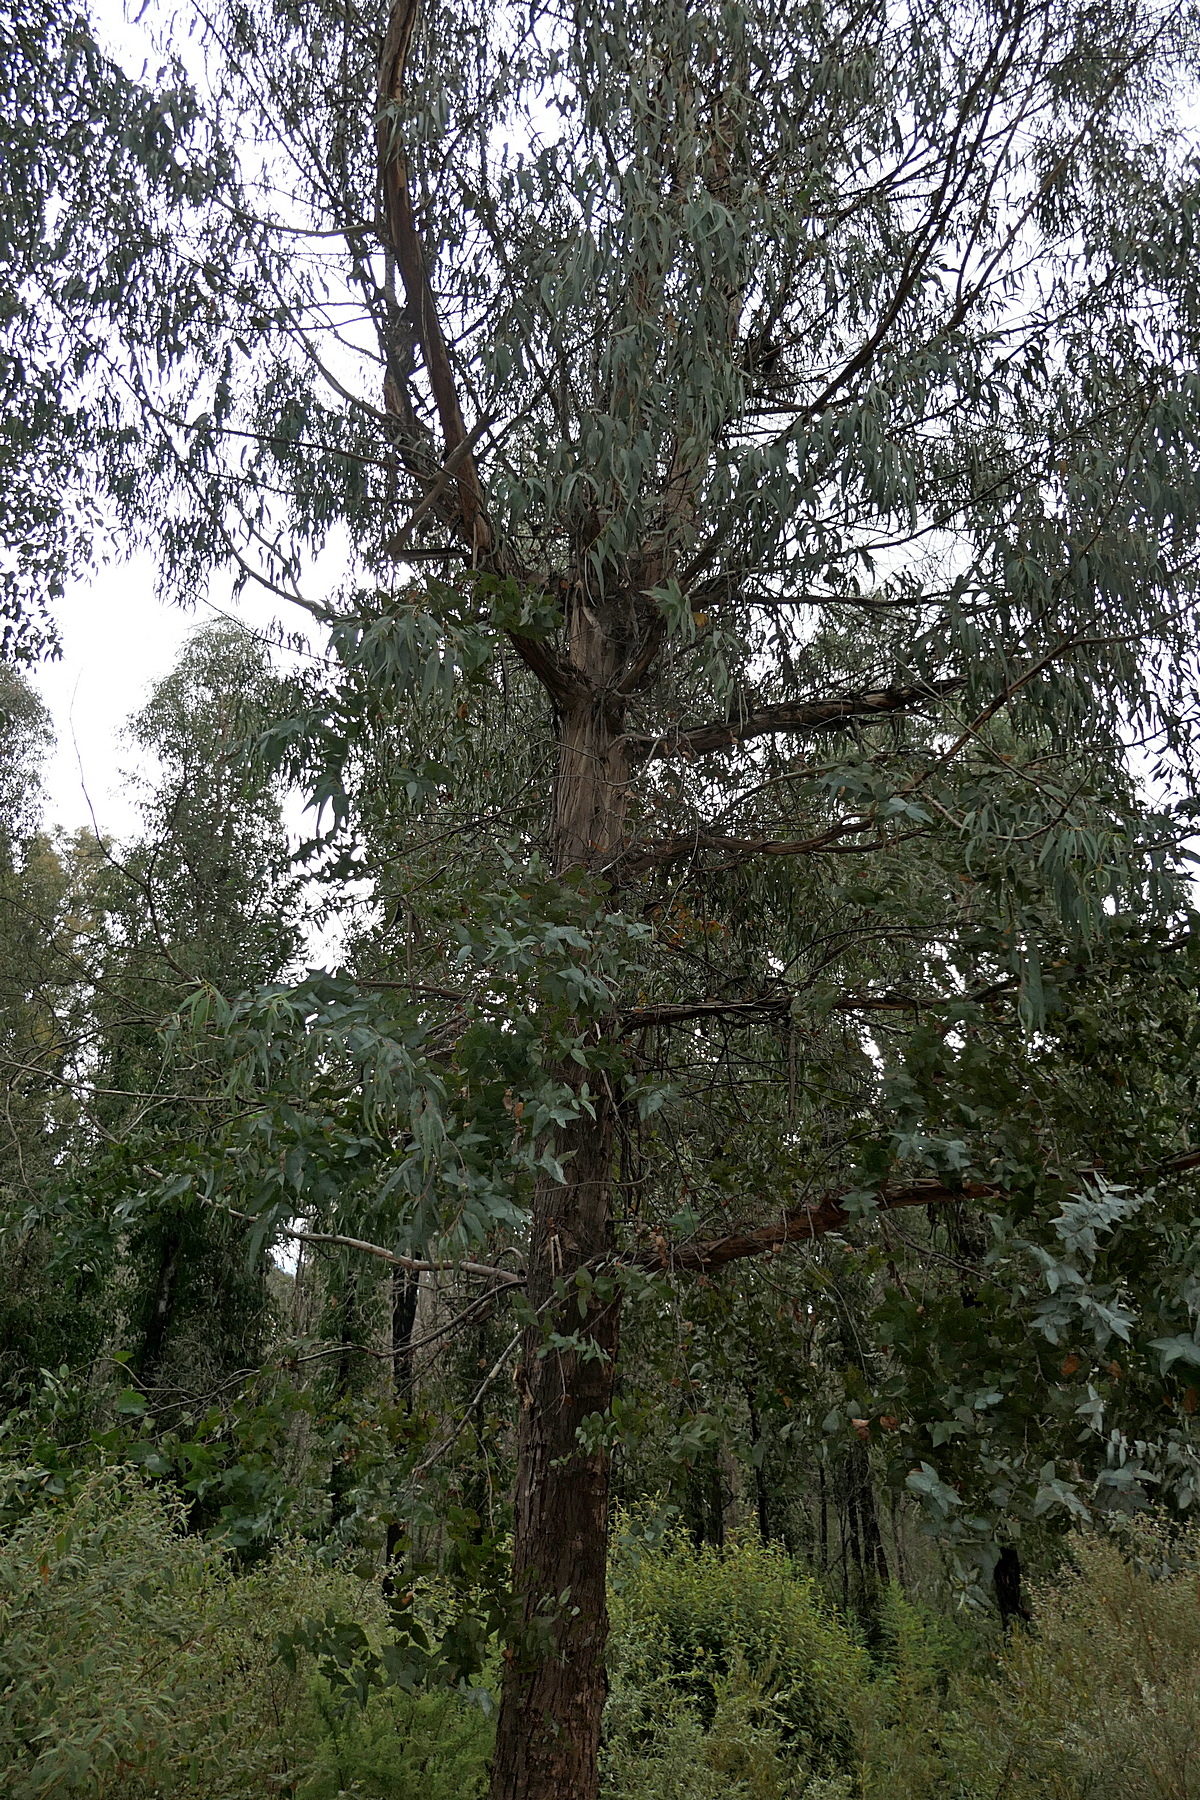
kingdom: Plantae
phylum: Tracheophyta
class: Magnoliopsida
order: Myrtales
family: Myrtaceae
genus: Eucalyptus
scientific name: Eucalyptus kartzoffiana
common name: Araluen gum
